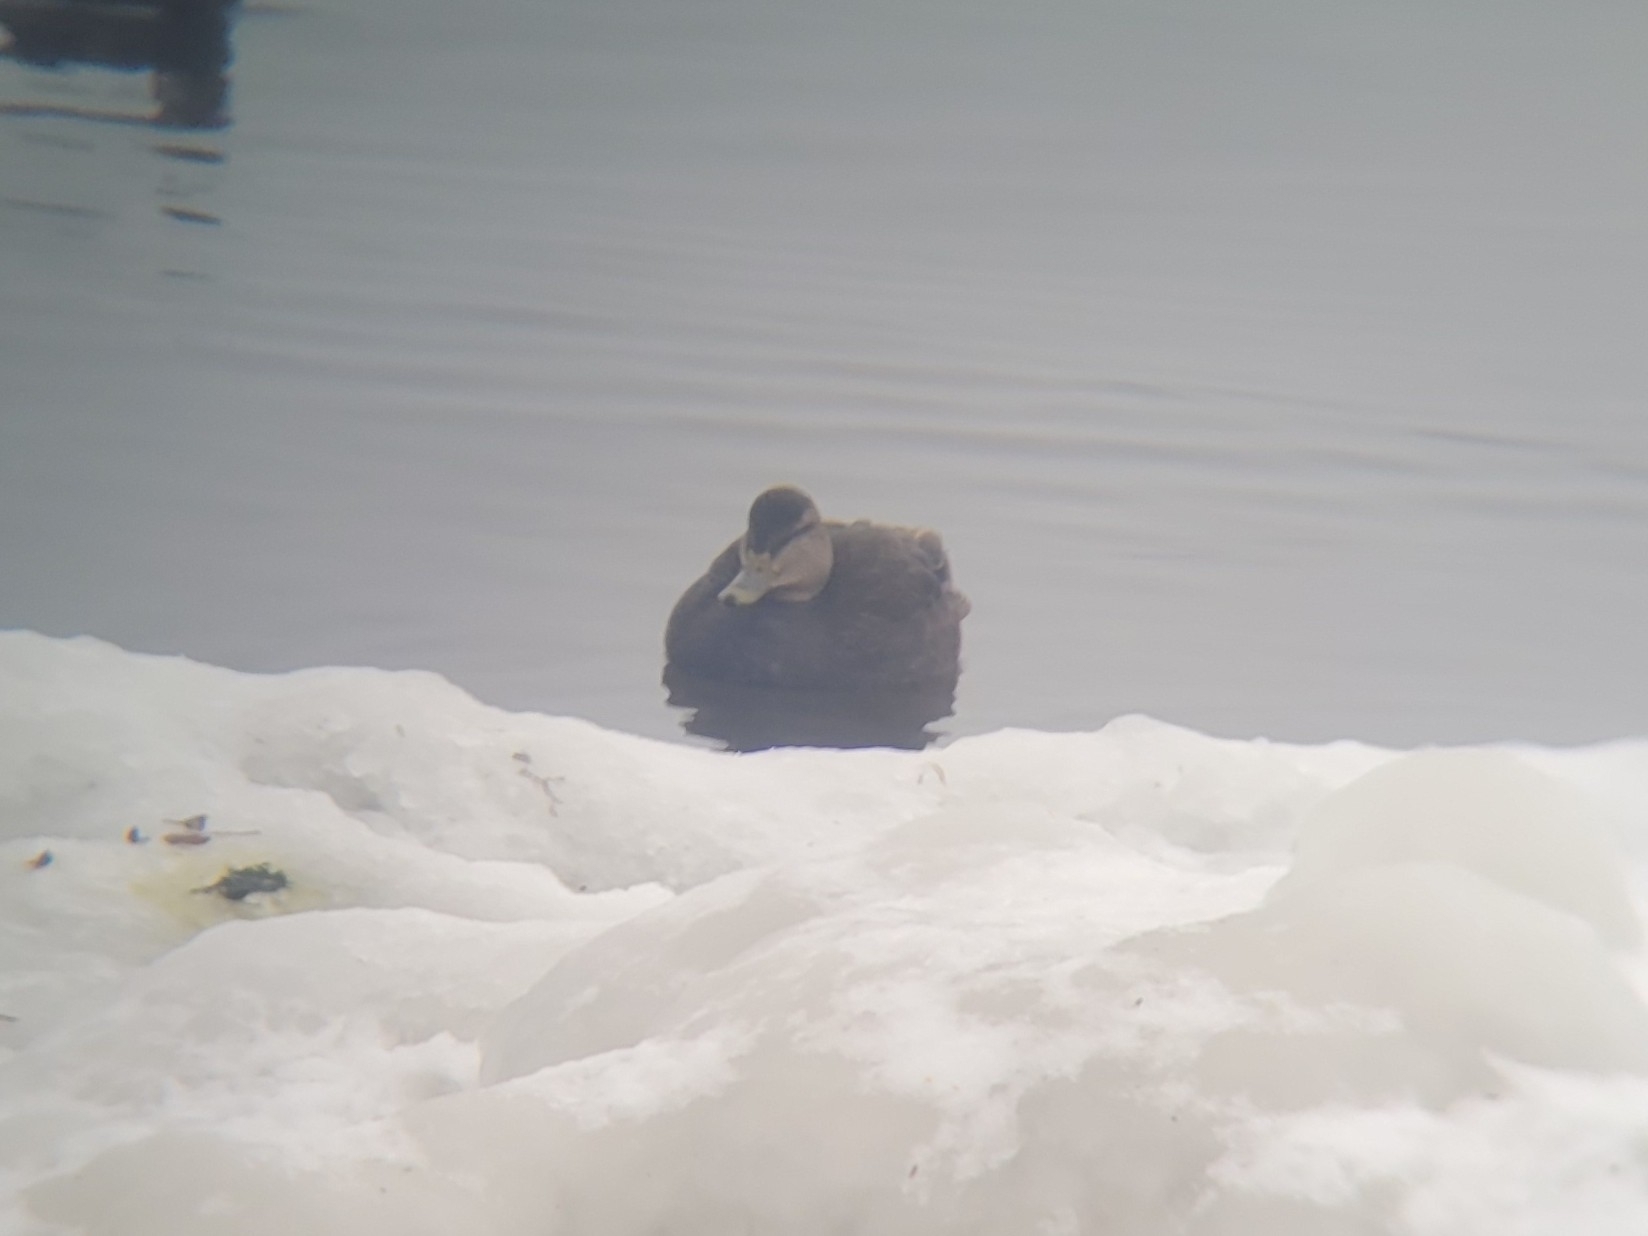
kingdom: Animalia
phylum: Chordata
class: Aves
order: Anseriformes
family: Anatidae
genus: Anas
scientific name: Anas rubripes
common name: American black duck
